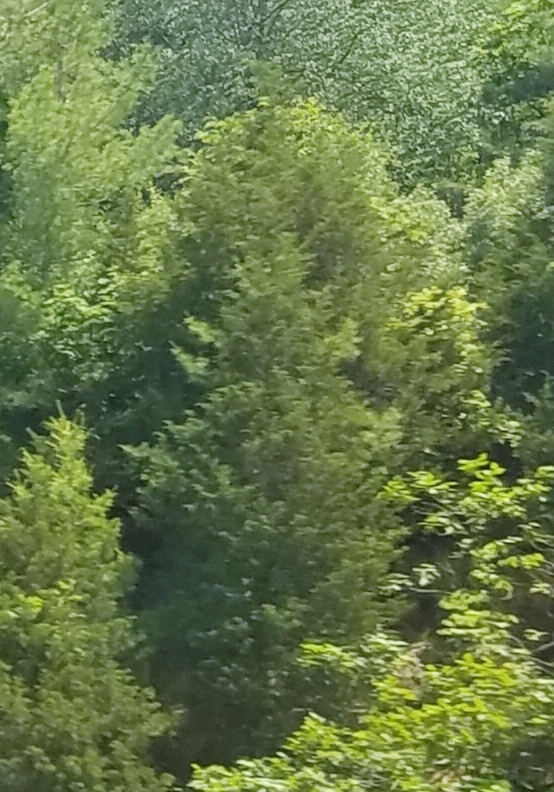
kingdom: Plantae
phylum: Tracheophyta
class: Pinopsida
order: Pinales
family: Cupressaceae
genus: Juniperus
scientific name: Juniperus virginiana
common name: Red juniper
